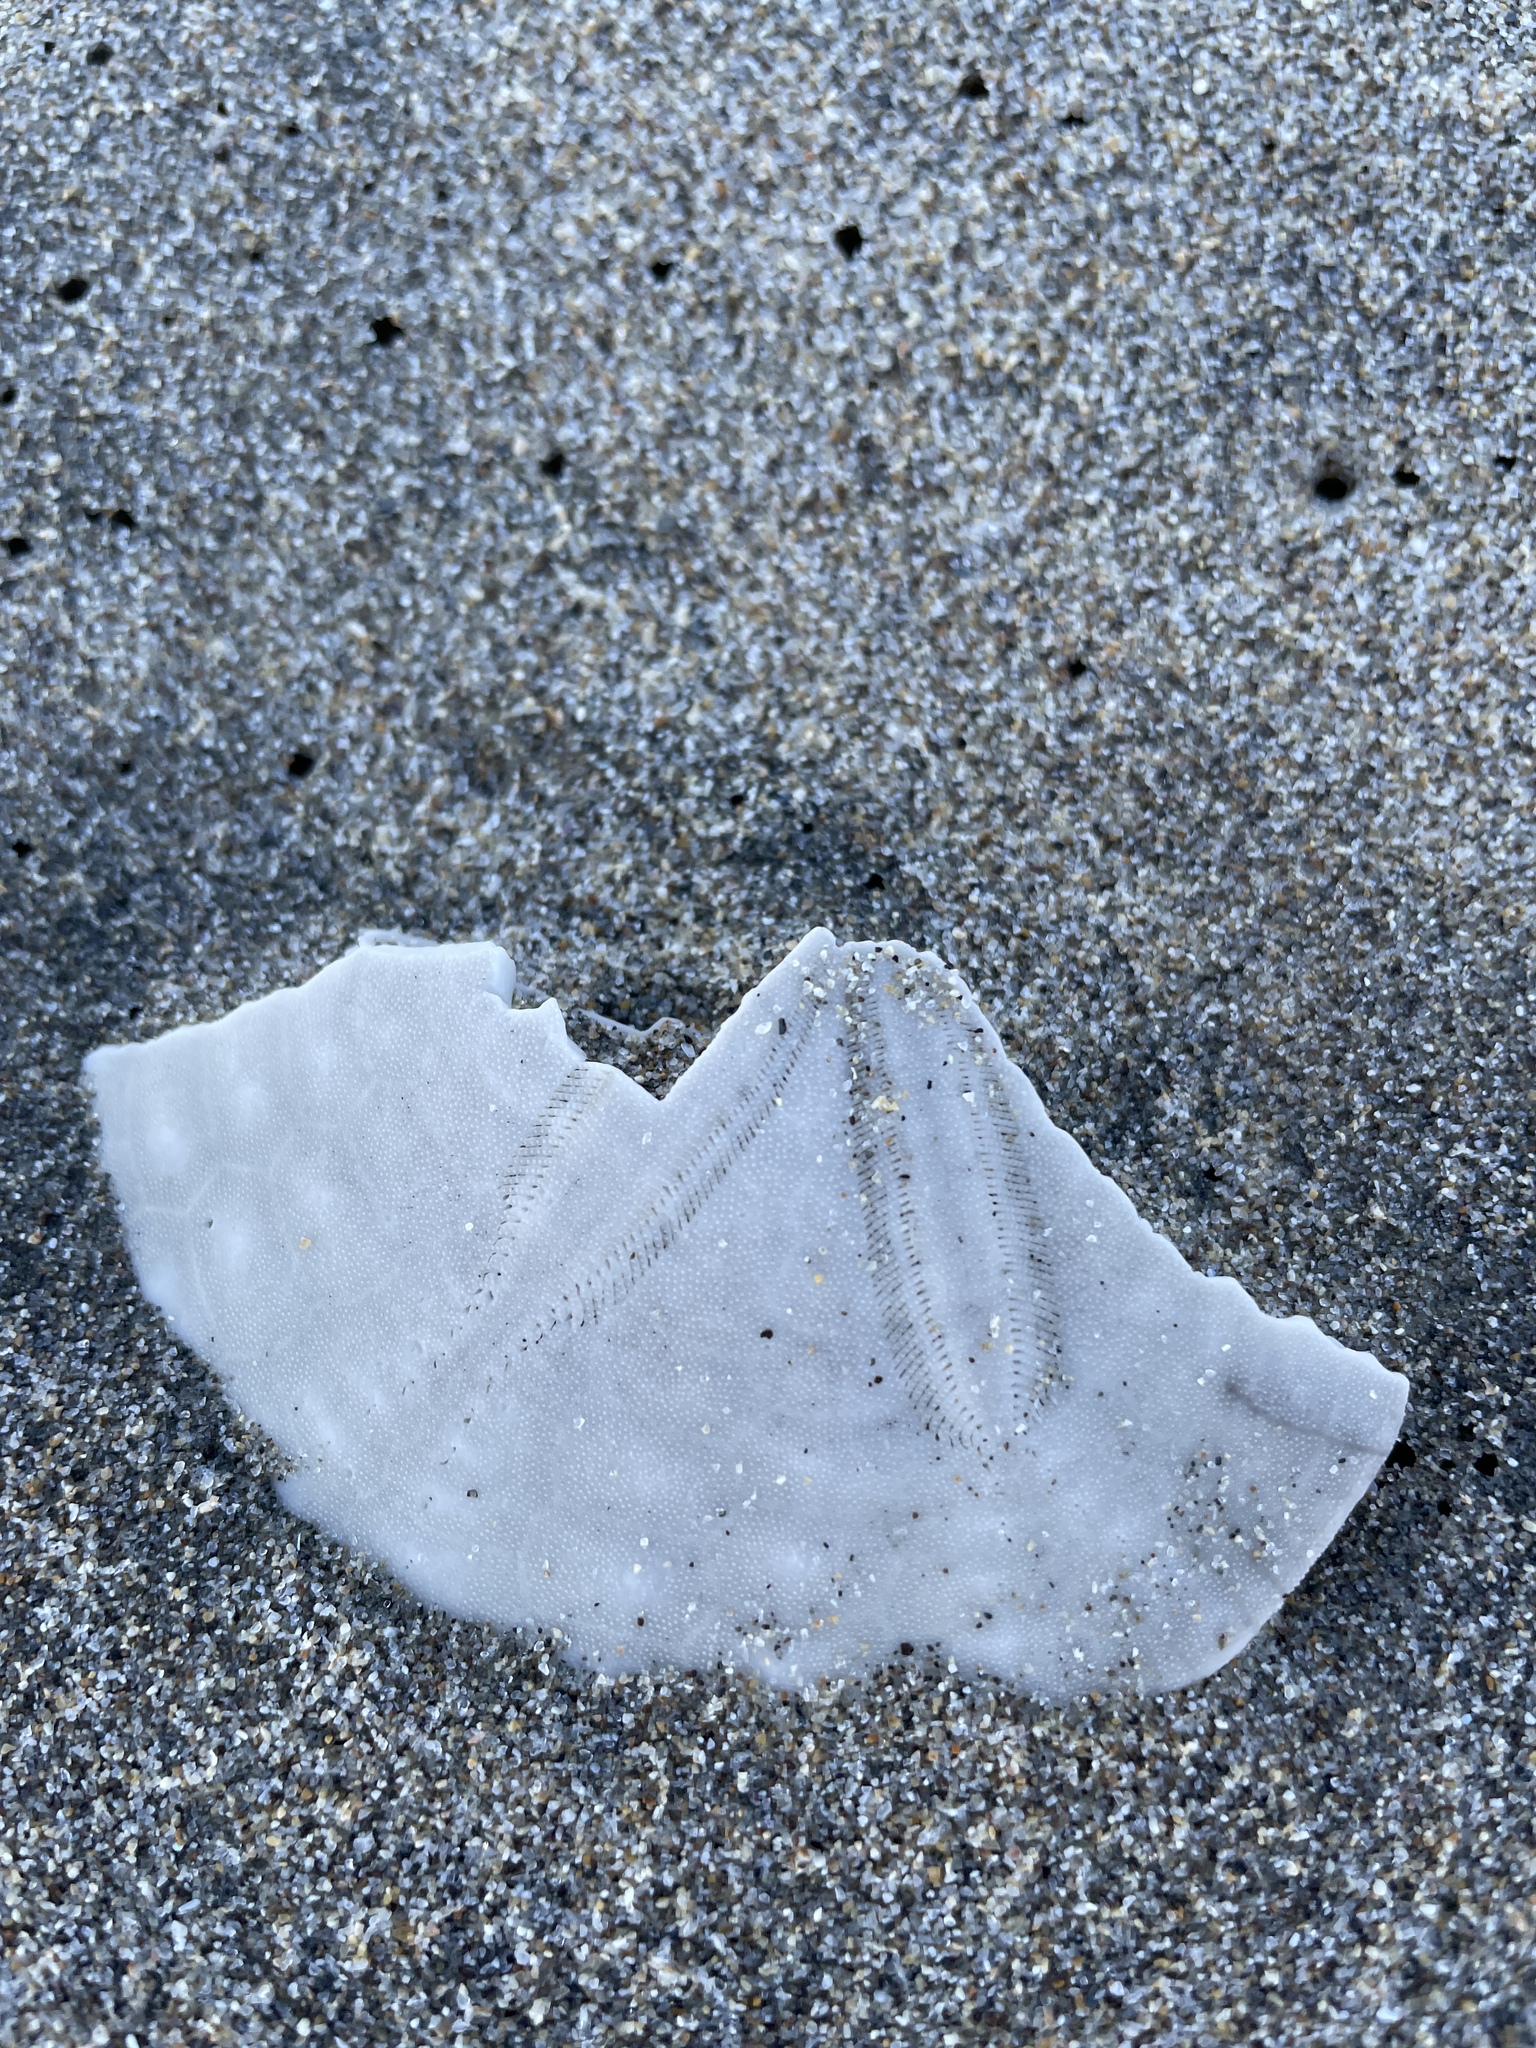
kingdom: Animalia
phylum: Echinodermata
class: Echinoidea
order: Echinolampadacea
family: Dendrasteridae
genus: Dendraster
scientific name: Dendraster excentricus
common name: Eccentric sand dollar sea urchin
